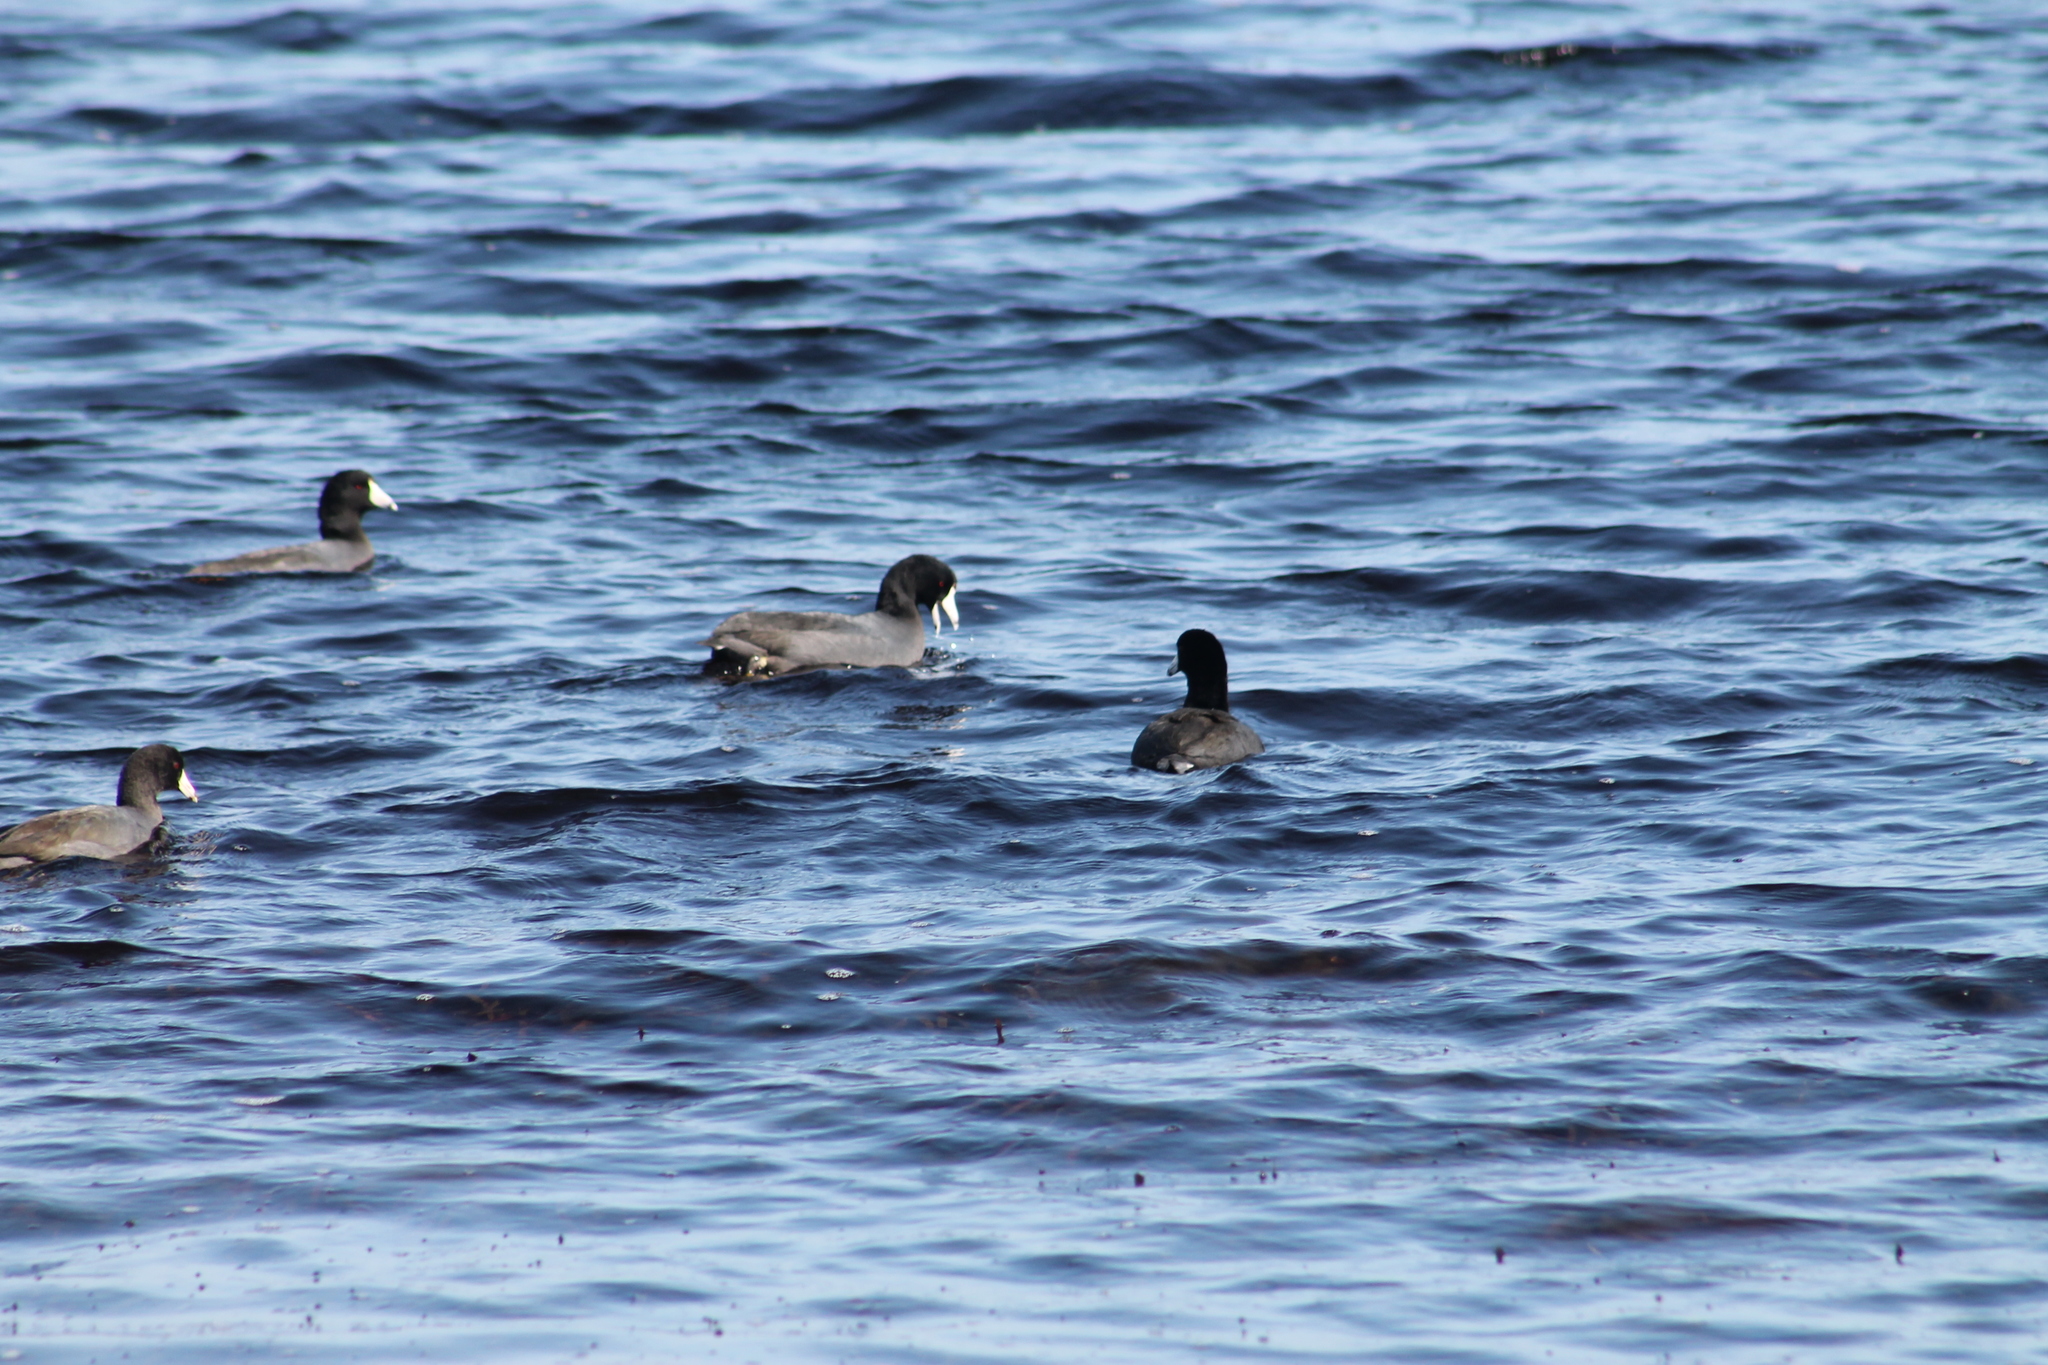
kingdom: Animalia
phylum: Chordata
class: Aves
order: Gruiformes
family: Rallidae
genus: Fulica
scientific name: Fulica americana
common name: American coot
